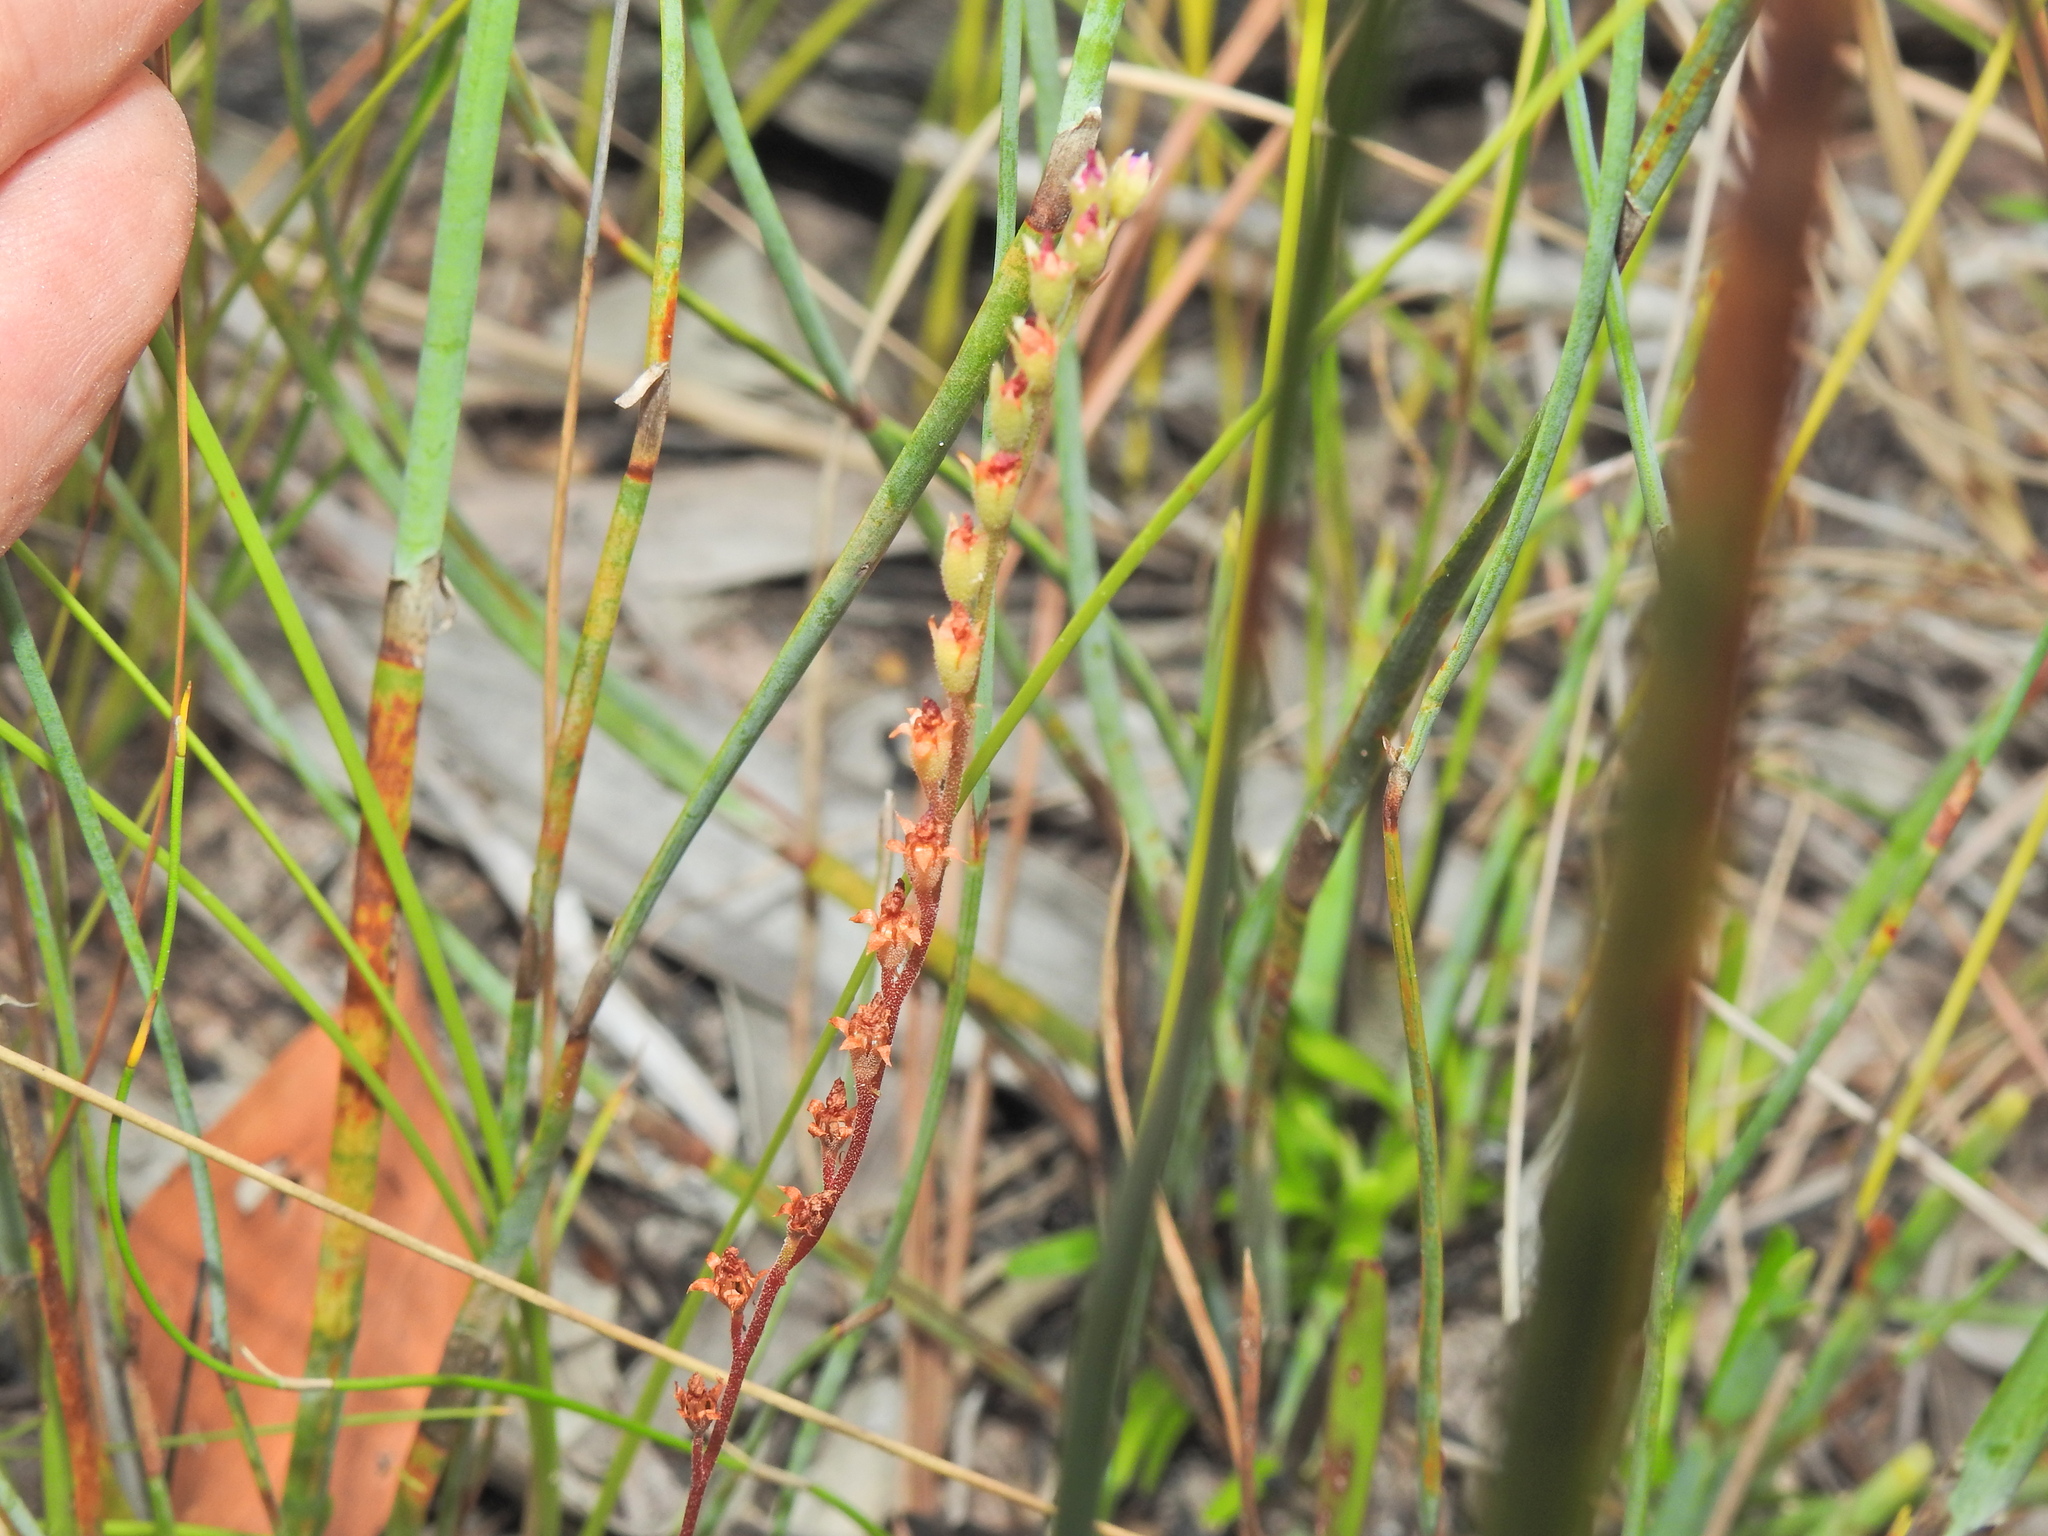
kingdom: Plantae
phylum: Tracheophyta
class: Magnoliopsida
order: Caryophyllales
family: Droseraceae
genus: Drosera
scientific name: Drosera spatulata
